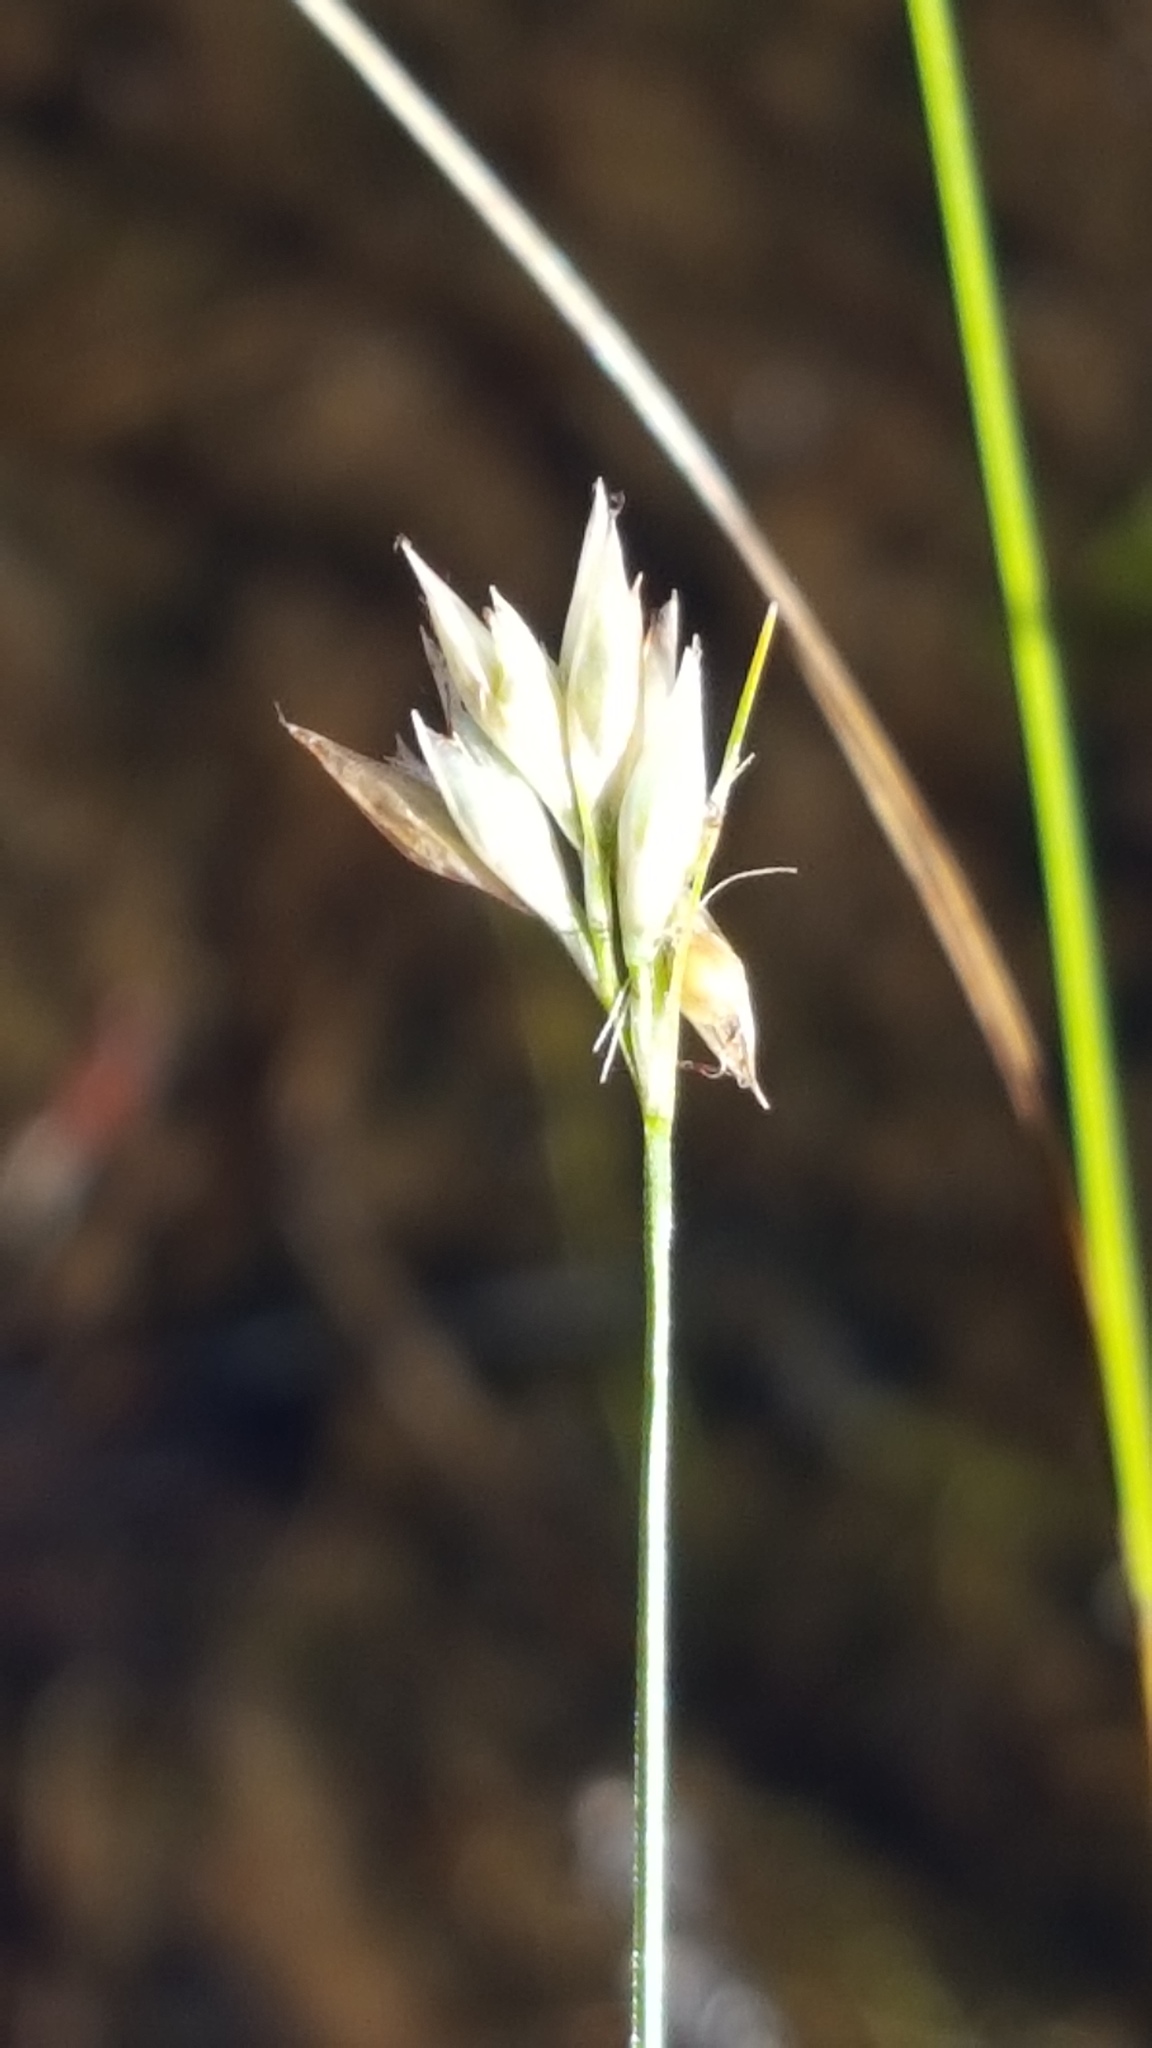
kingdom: Plantae
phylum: Tracheophyta
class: Liliopsida
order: Poales
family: Cyperaceae
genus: Rhynchospora
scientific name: Rhynchospora alba
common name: White beak-sedge
